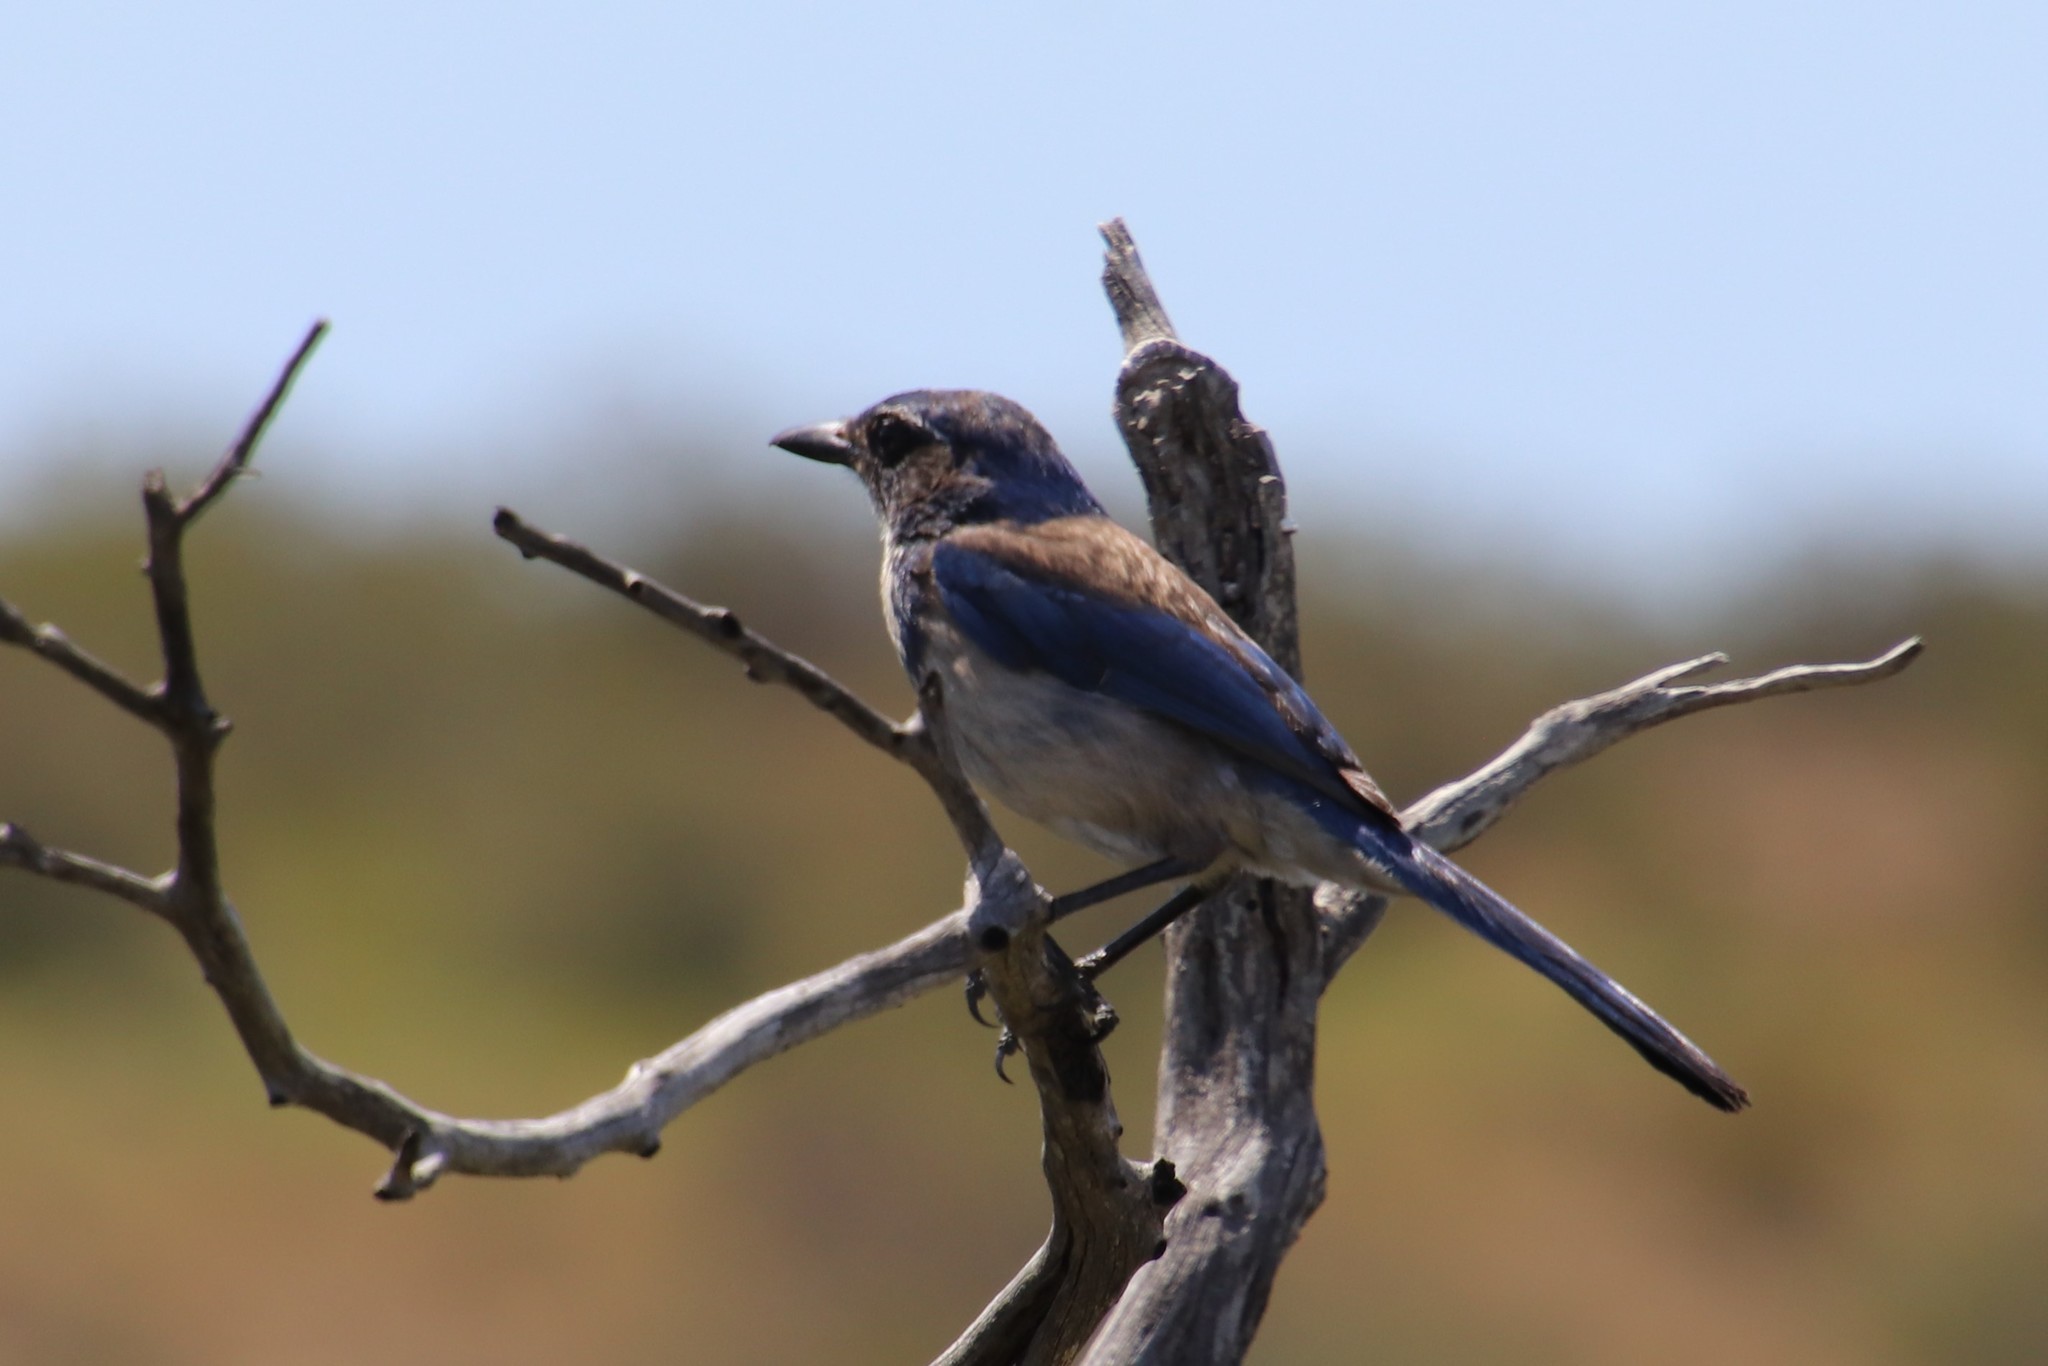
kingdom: Animalia
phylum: Chordata
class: Aves
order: Passeriformes
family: Corvidae
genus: Aphelocoma
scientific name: Aphelocoma californica
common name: California scrub-jay
